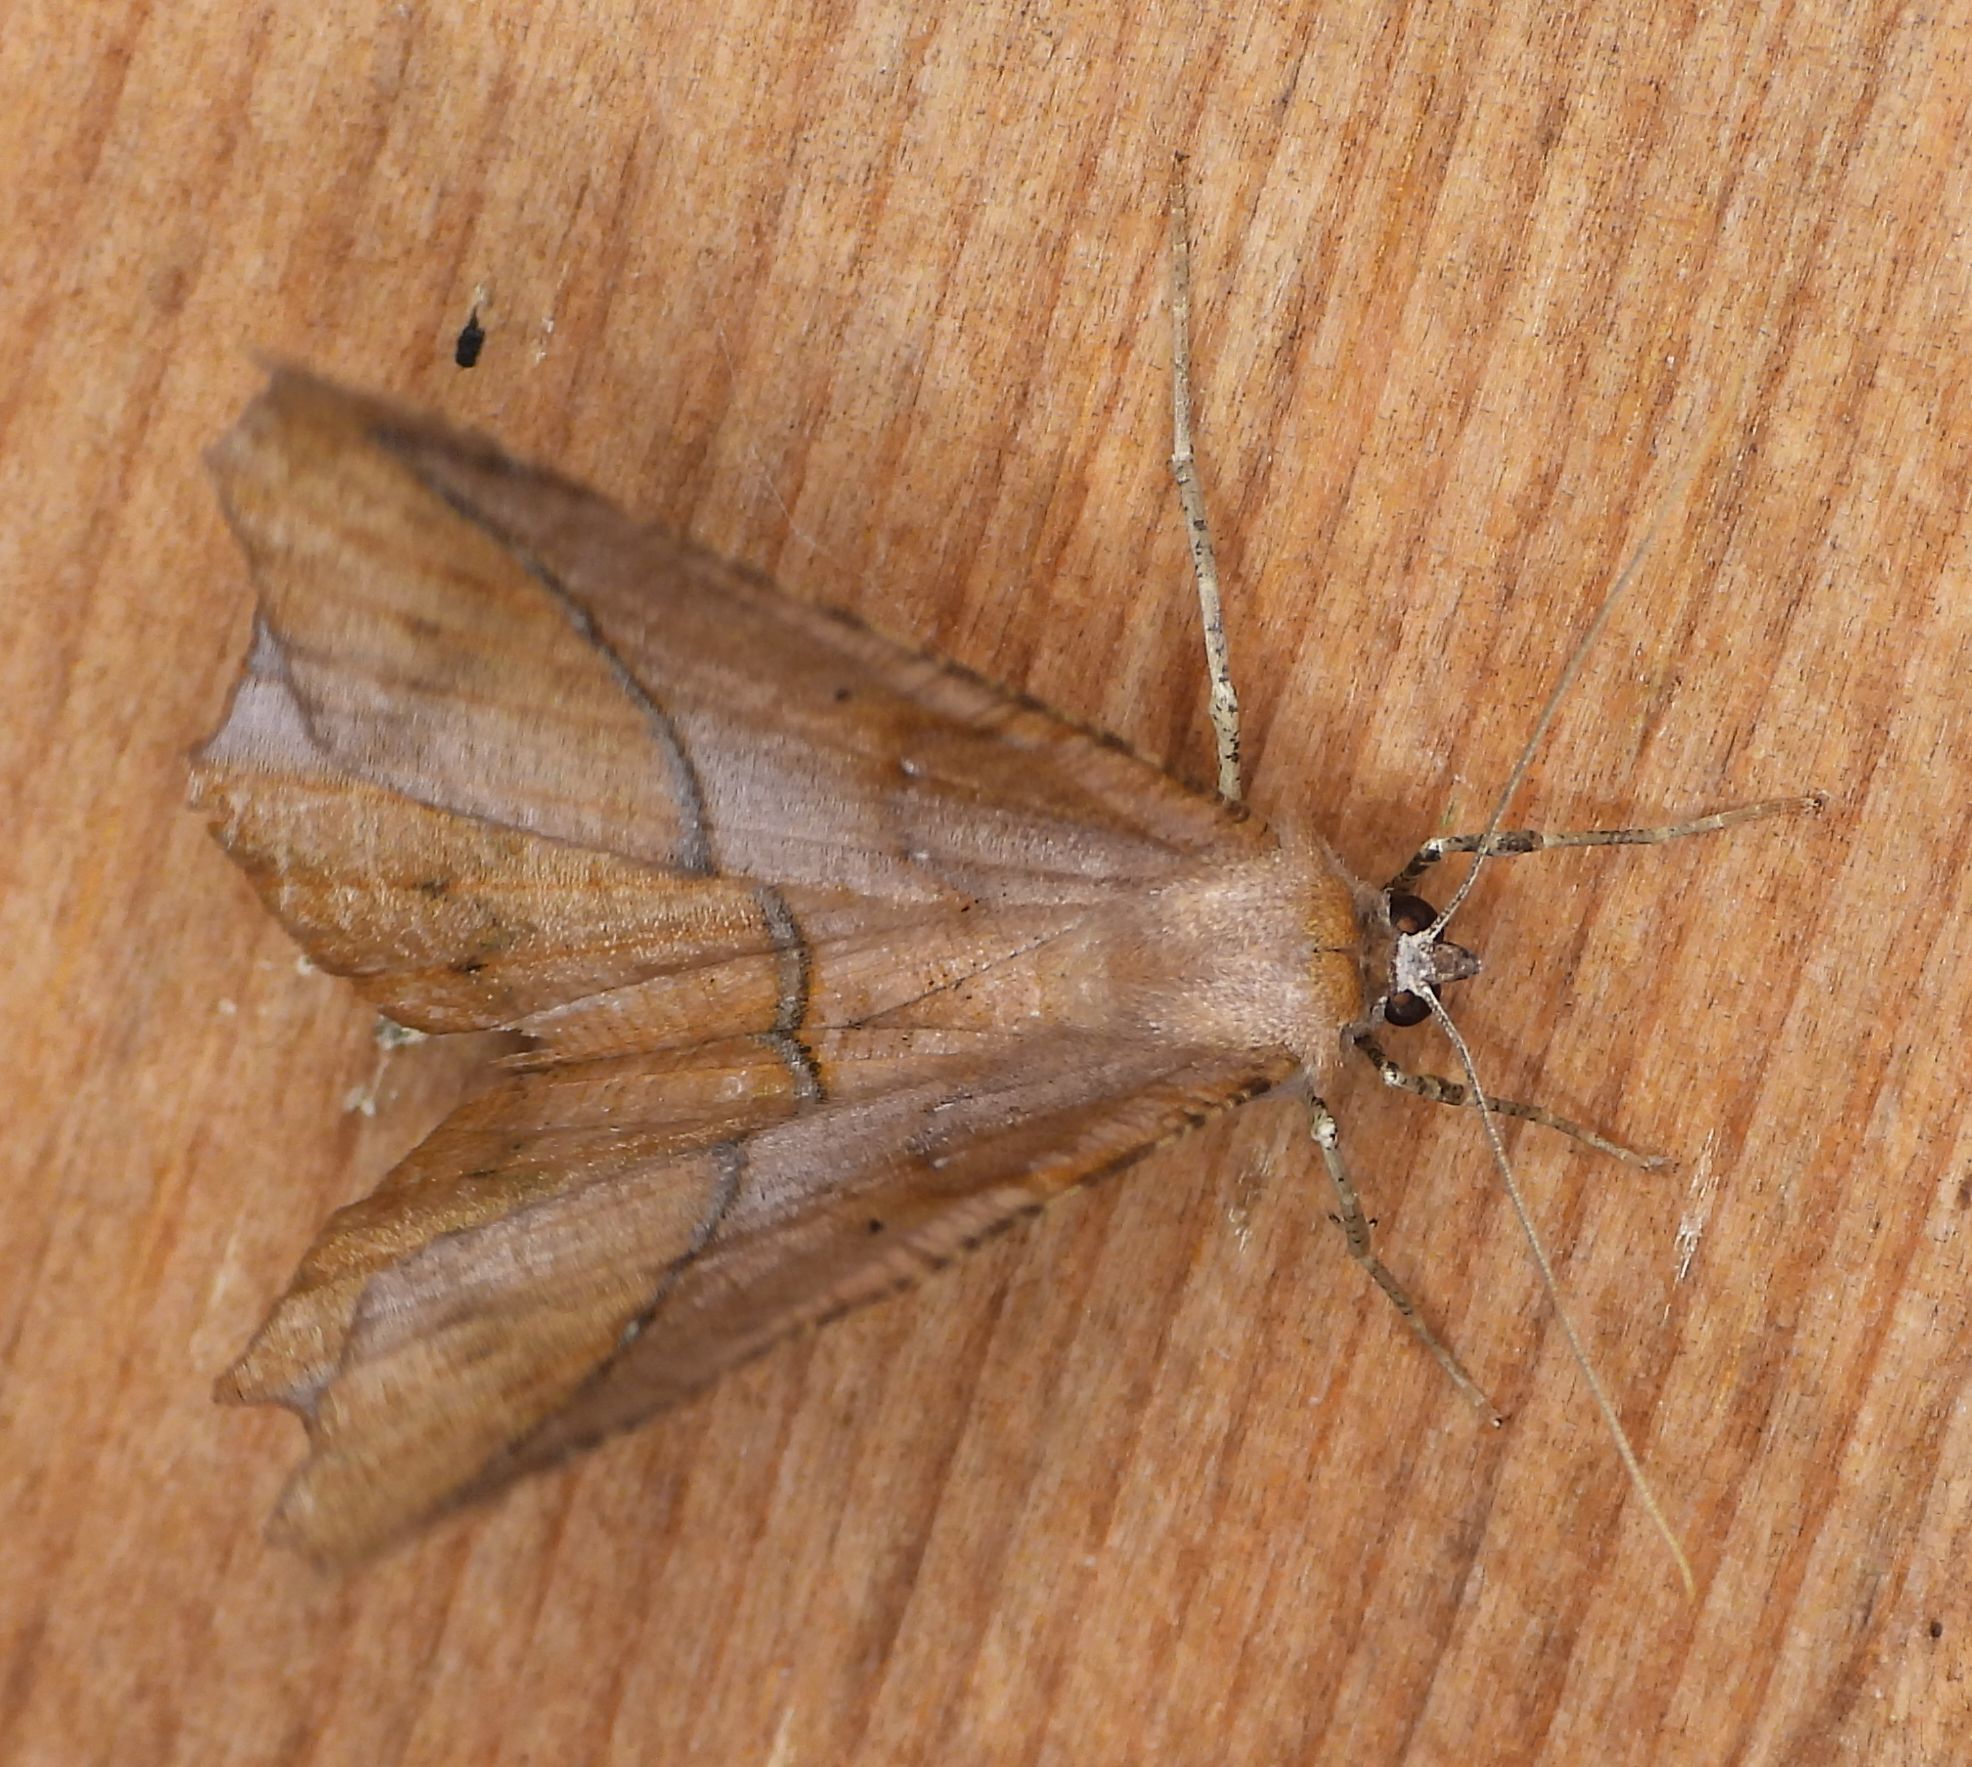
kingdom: Animalia
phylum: Arthropoda
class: Insecta
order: Lepidoptera
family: Geometridae
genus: Prochoerodes
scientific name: Prochoerodes lineola
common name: Large maple spanworm
